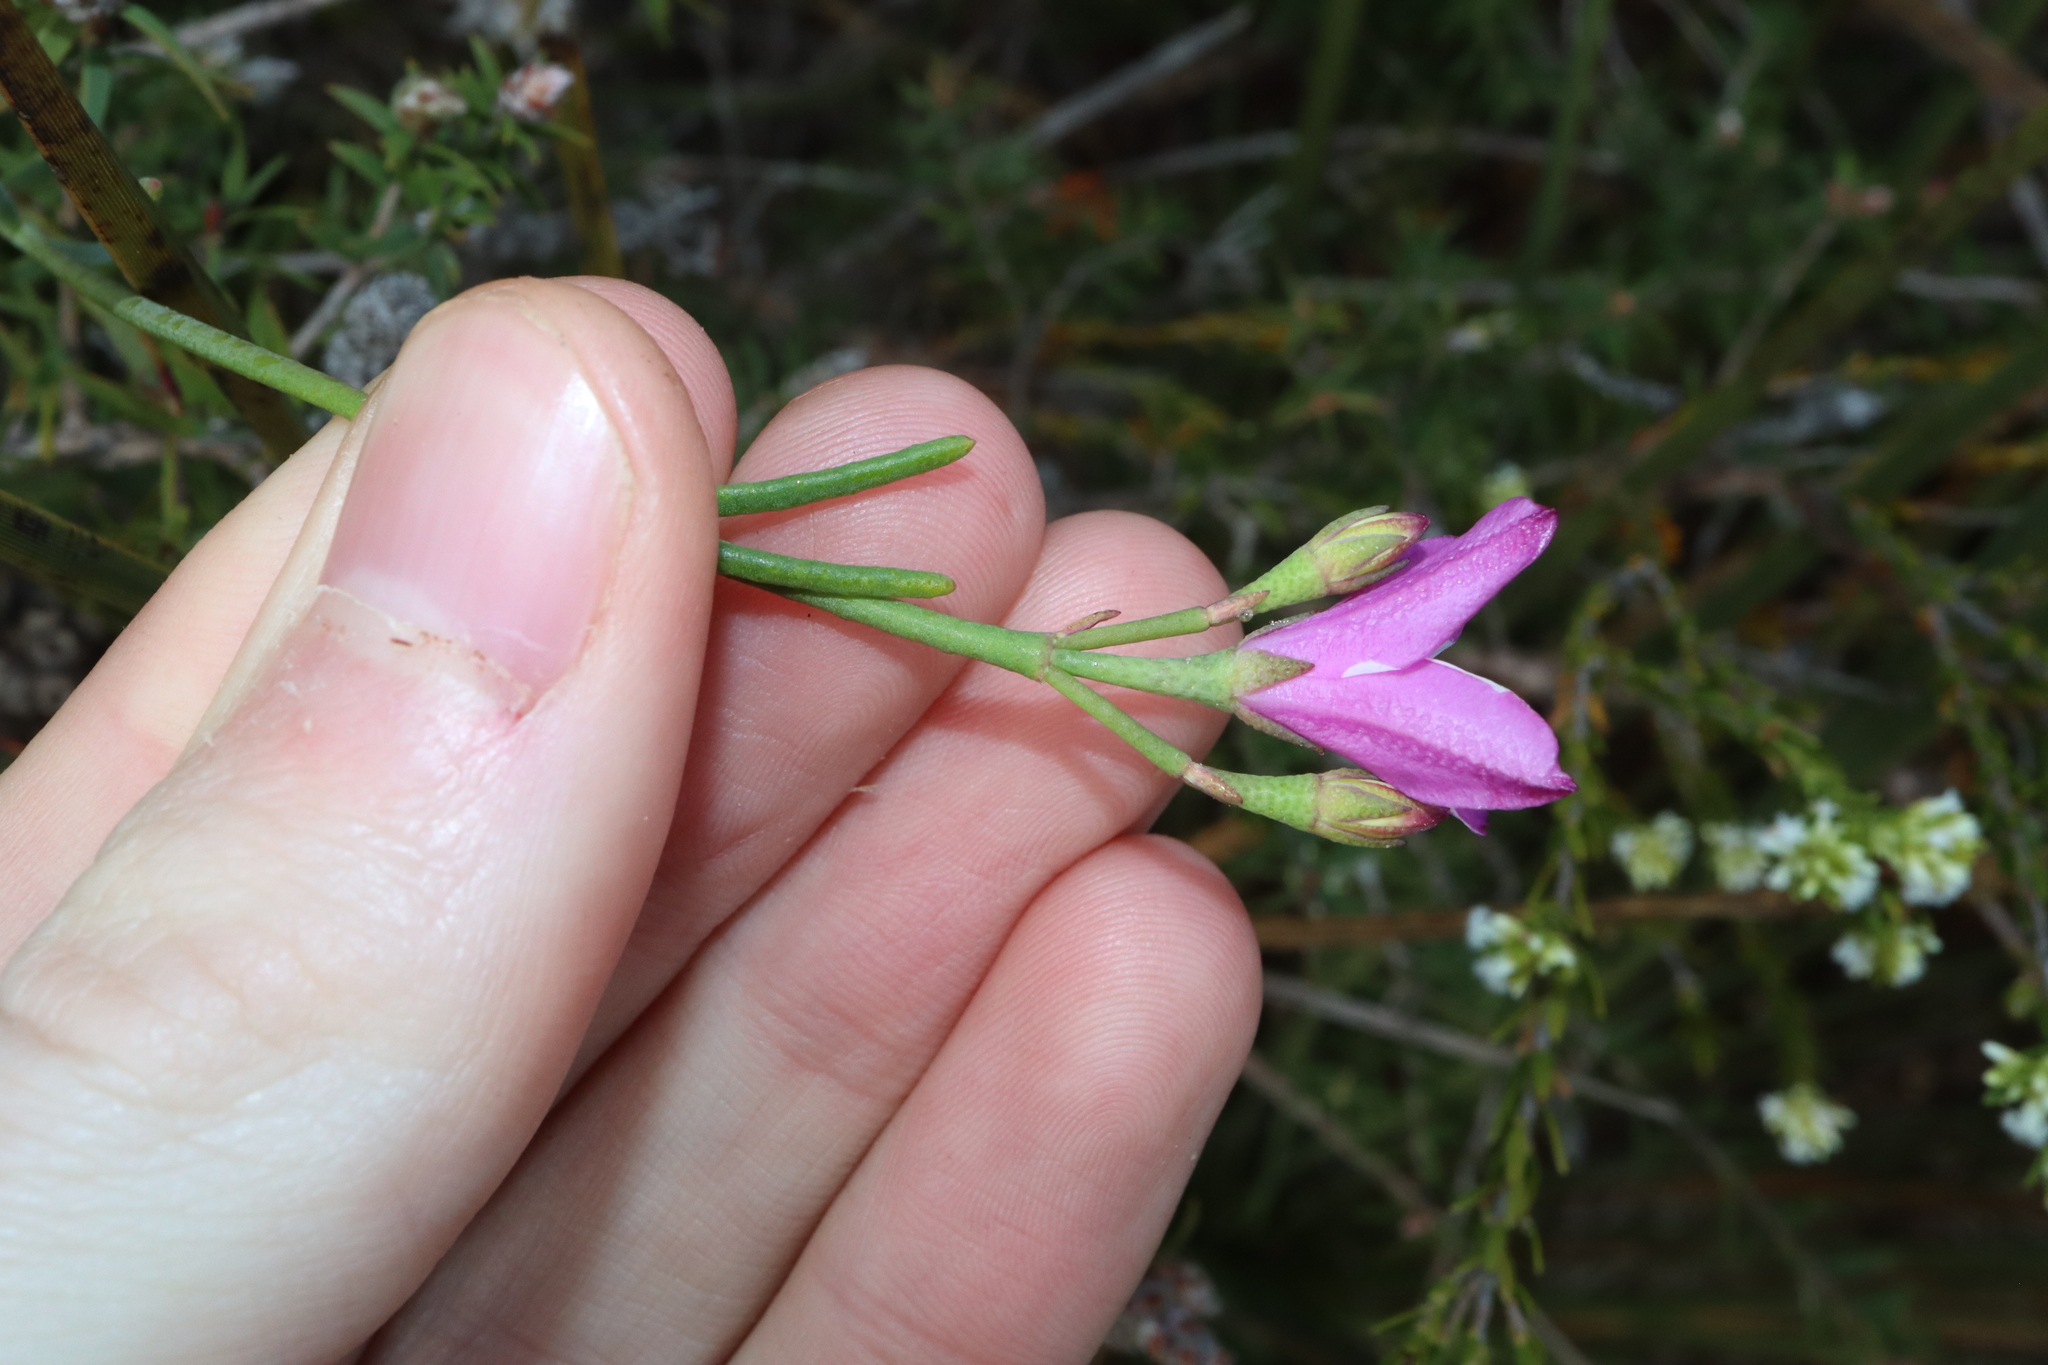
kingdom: Plantae
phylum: Tracheophyta
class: Magnoliopsida
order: Sapindales
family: Rutaceae
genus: Boronia
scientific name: Boronia spathulata
